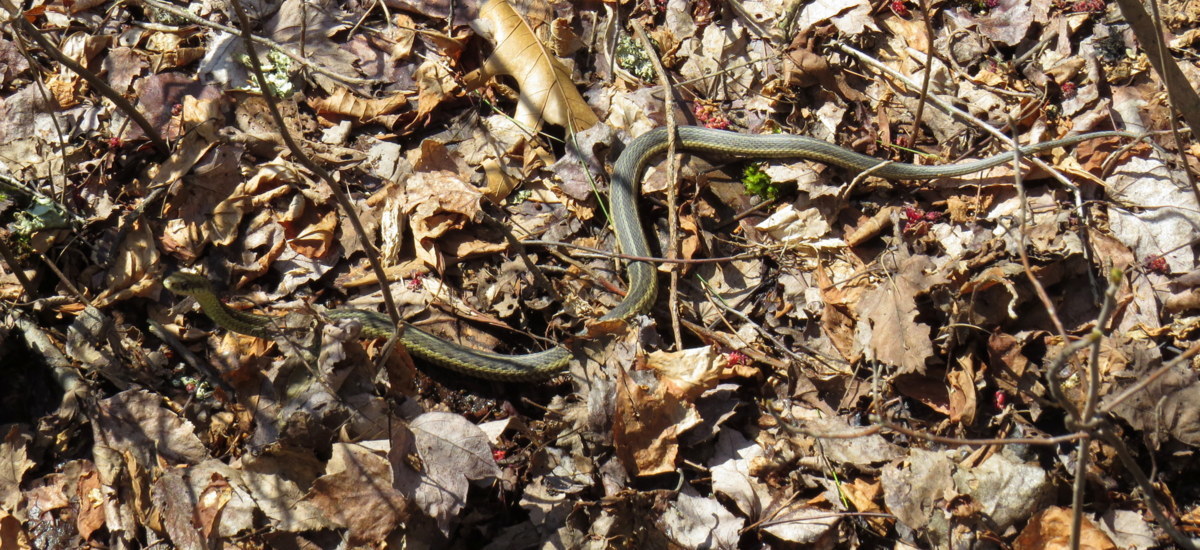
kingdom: Animalia
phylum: Chordata
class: Squamata
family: Colubridae
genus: Thamnophis
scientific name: Thamnophis sirtalis
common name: Common garter snake
